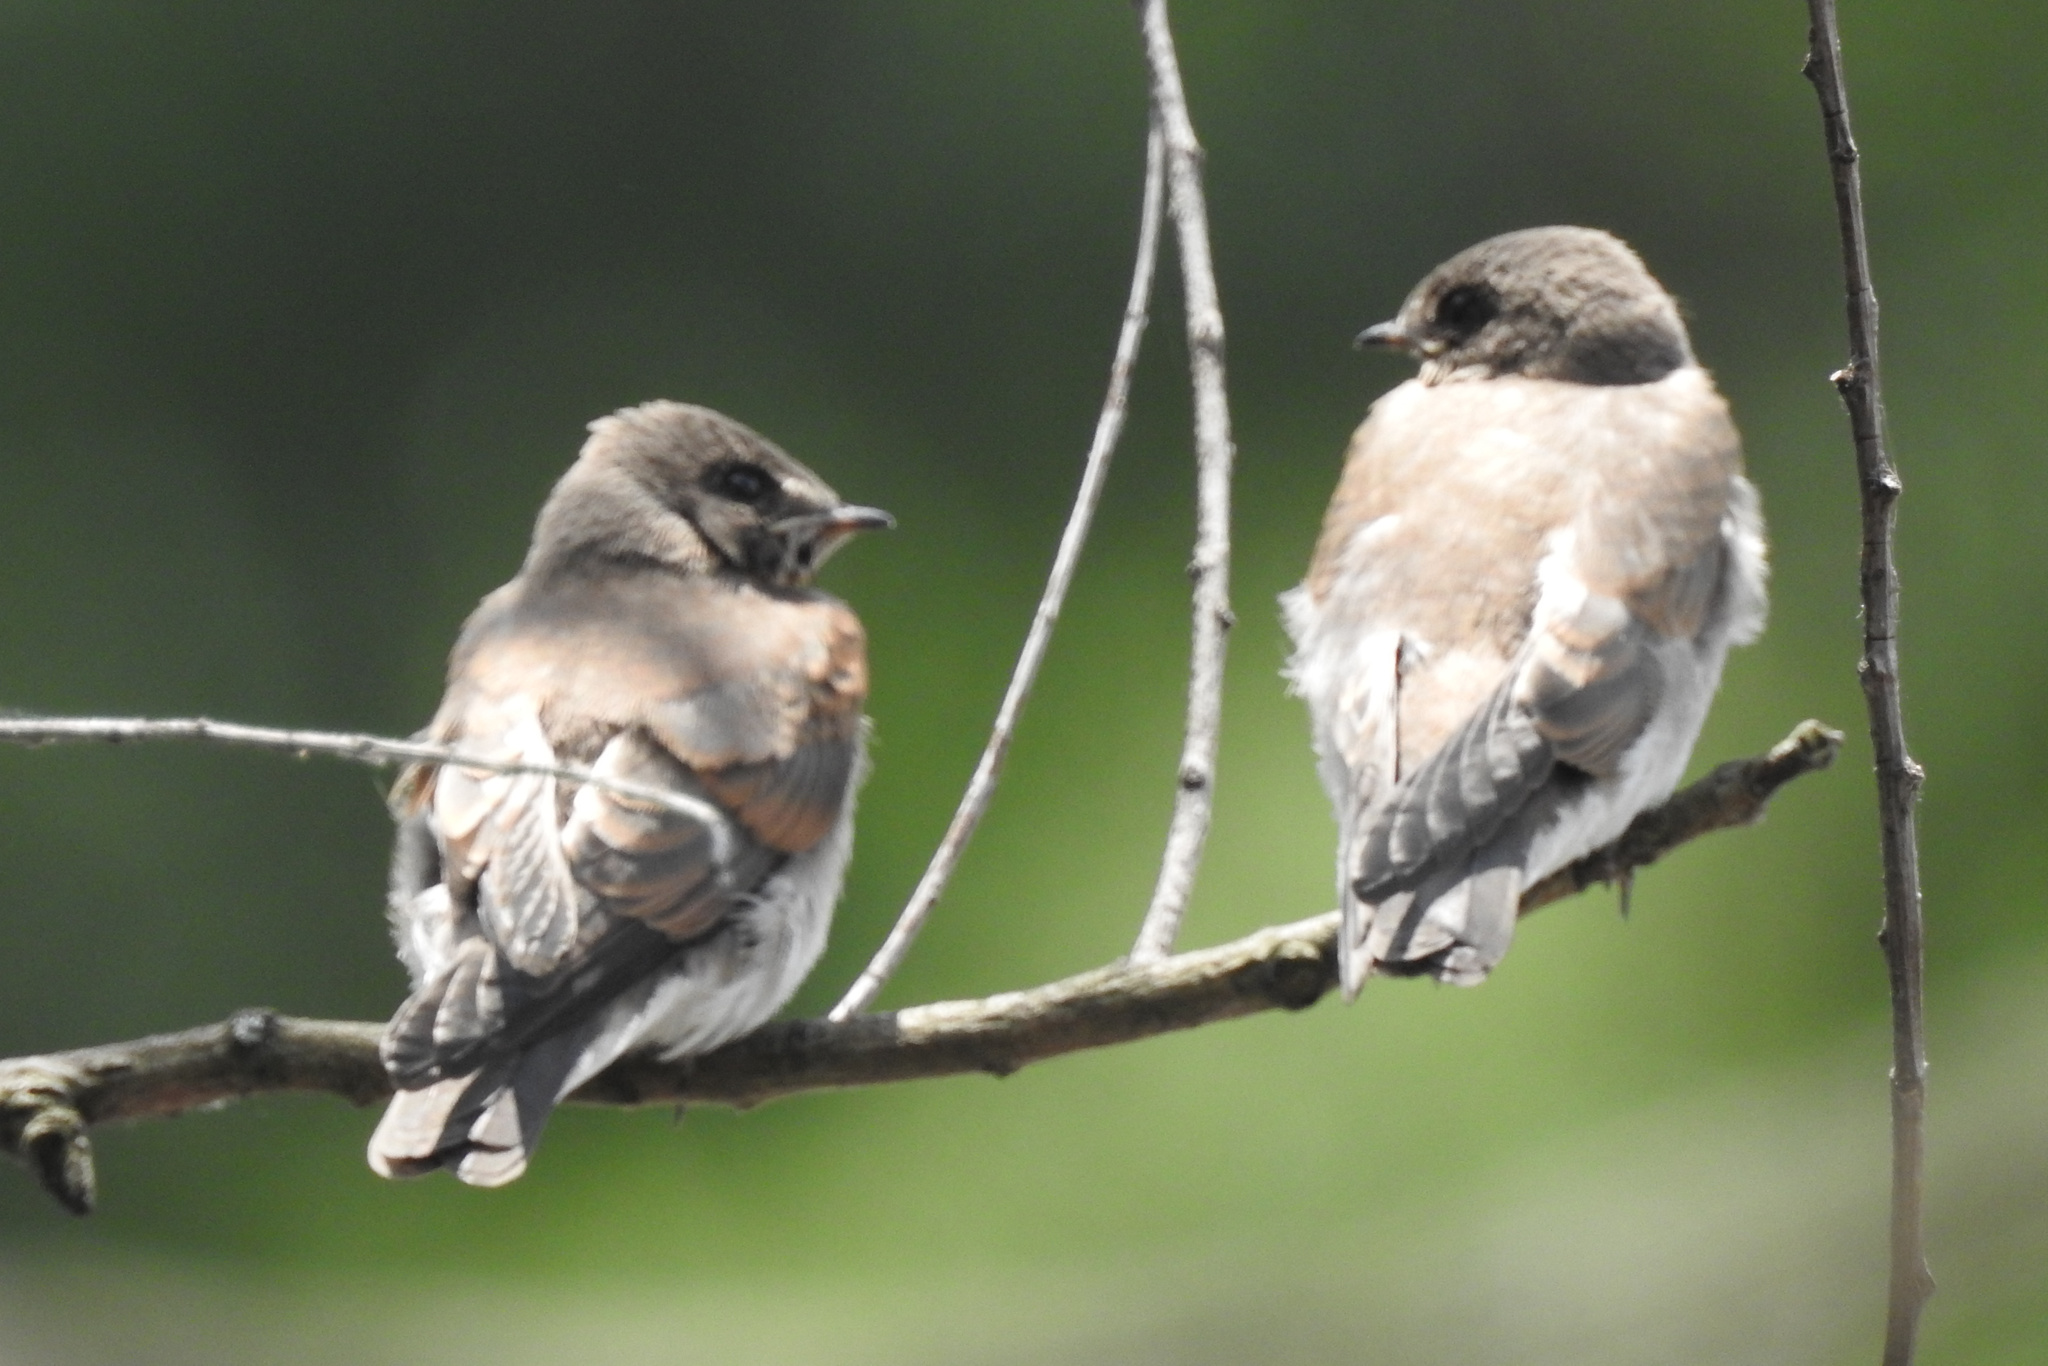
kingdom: Animalia
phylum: Chordata
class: Aves
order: Passeriformes
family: Hirundinidae
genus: Stelgidopteryx
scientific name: Stelgidopteryx serripennis
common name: Northern rough-winged swallow
